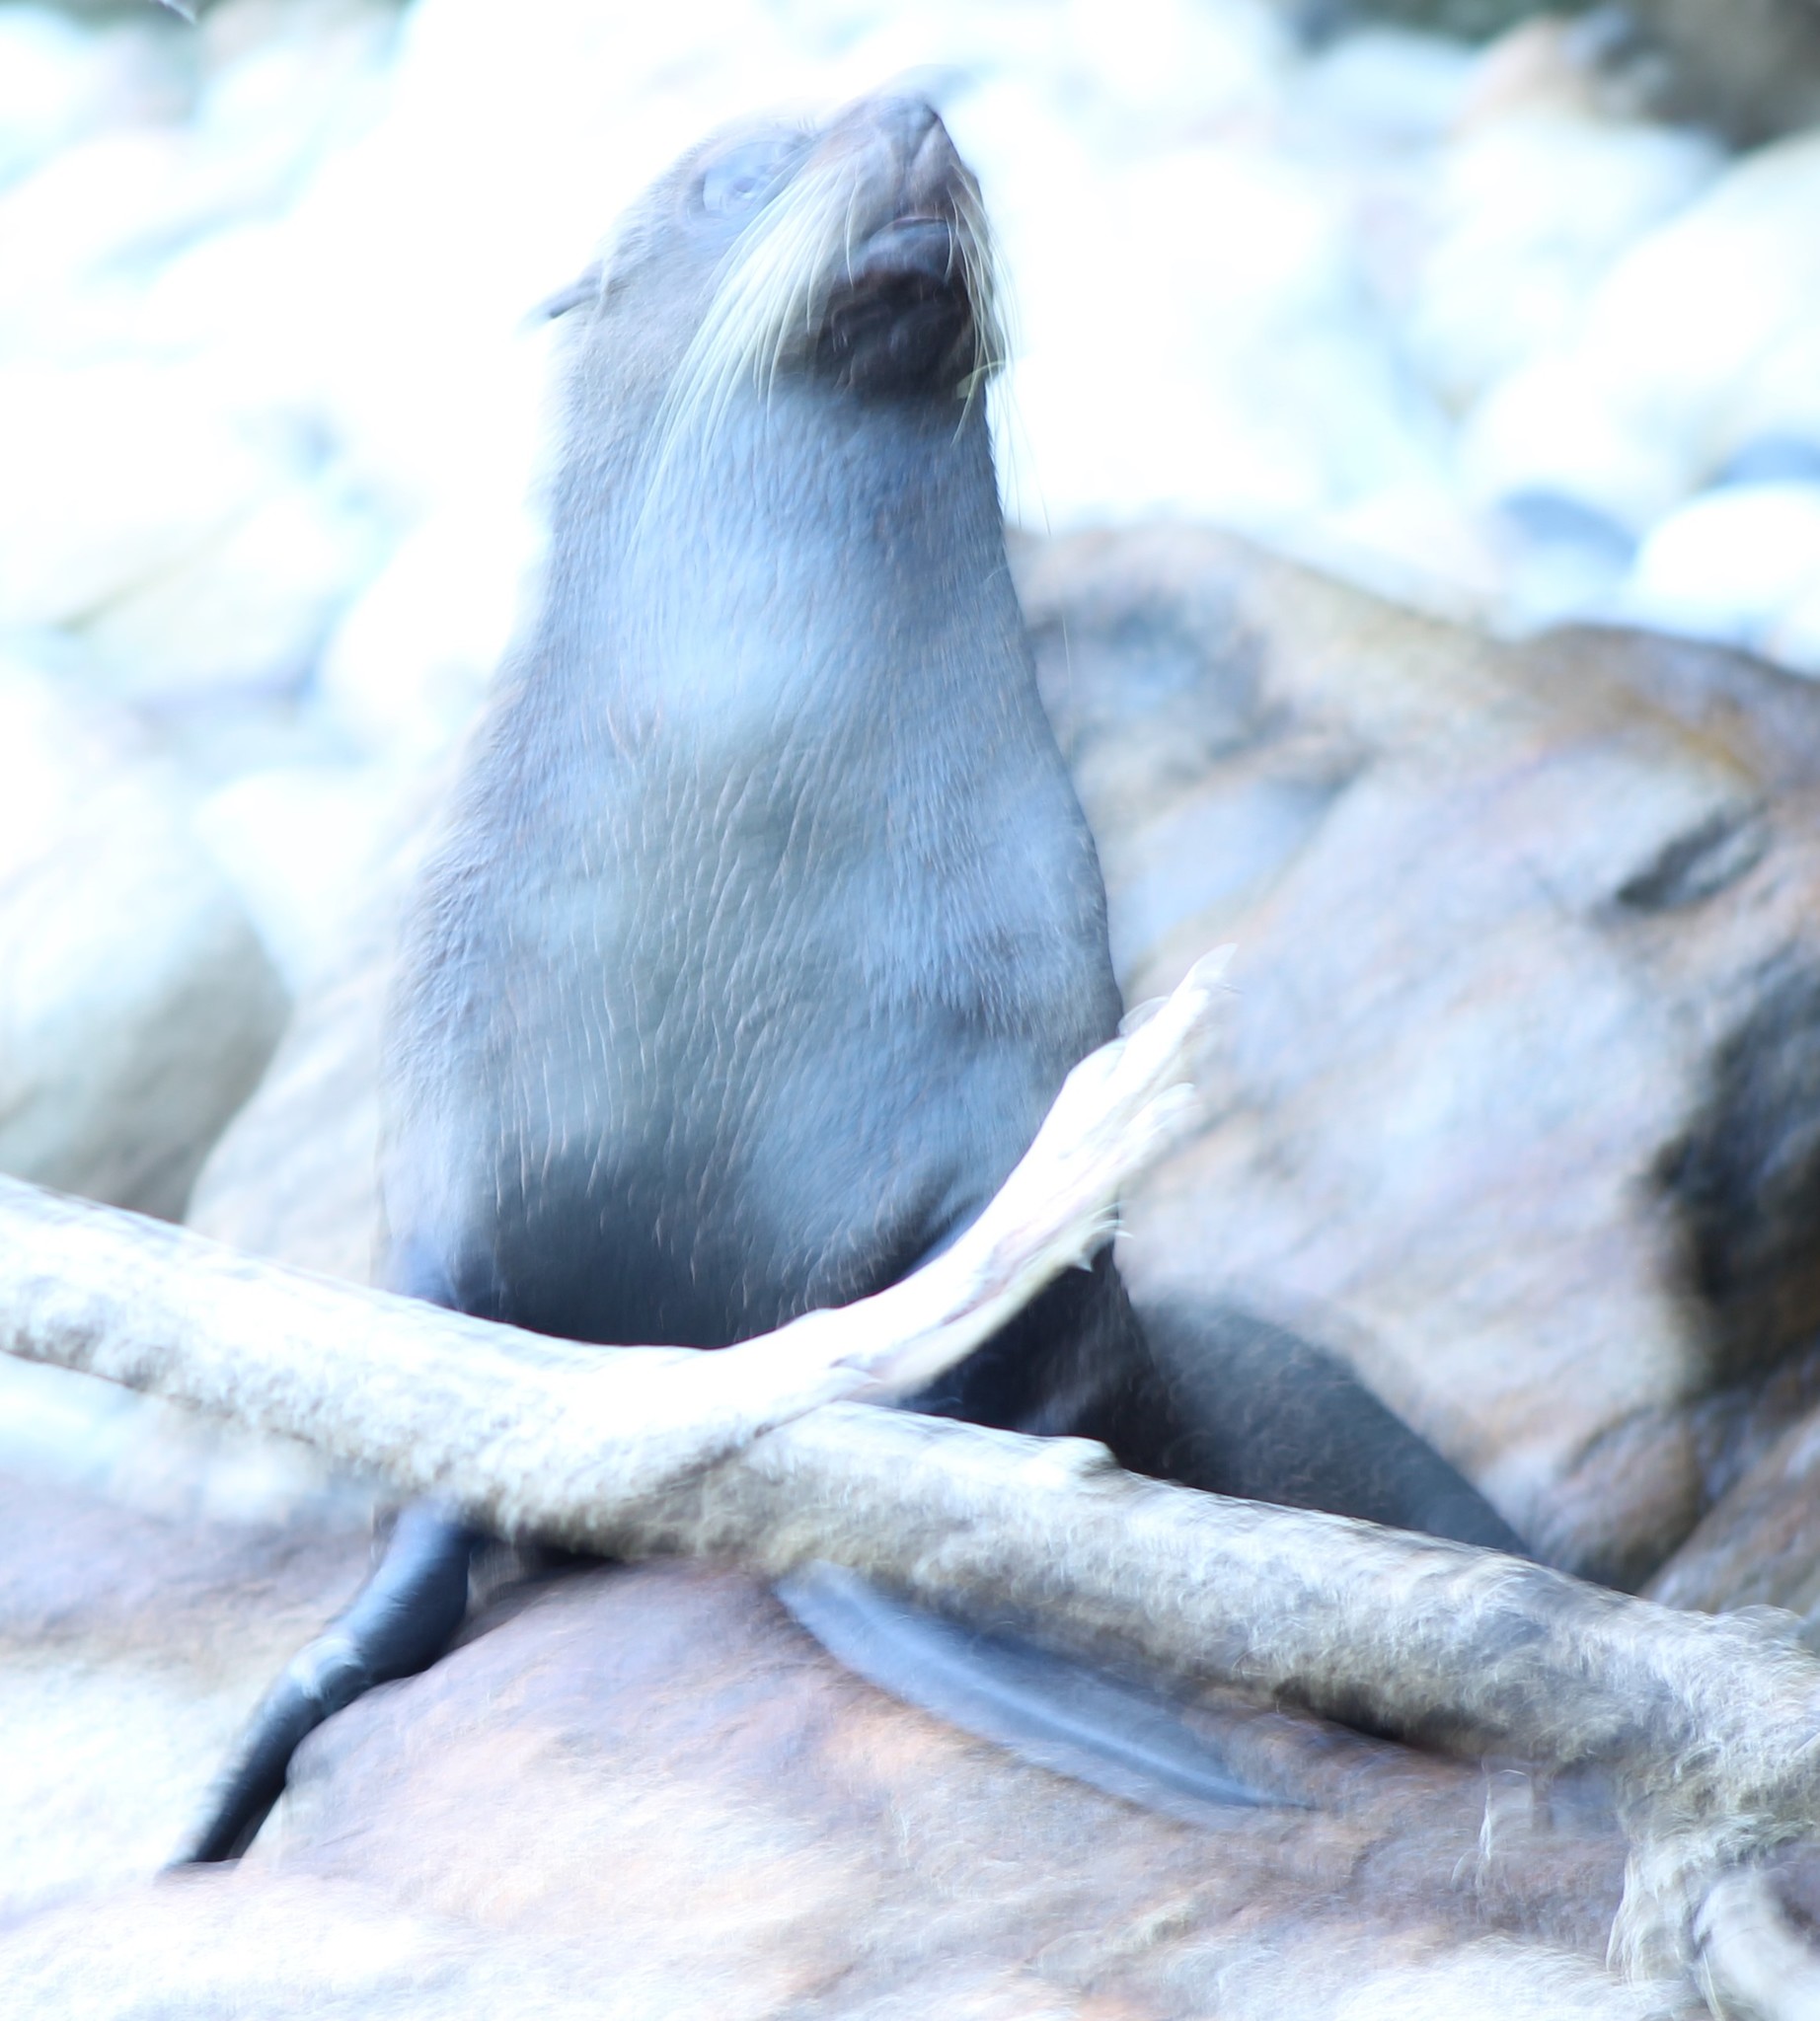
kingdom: Animalia
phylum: Chordata
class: Mammalia
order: Carnivora
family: Otariidae
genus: Arctocephalus
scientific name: Arctocephalus forsteri
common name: New zealand fur seal
